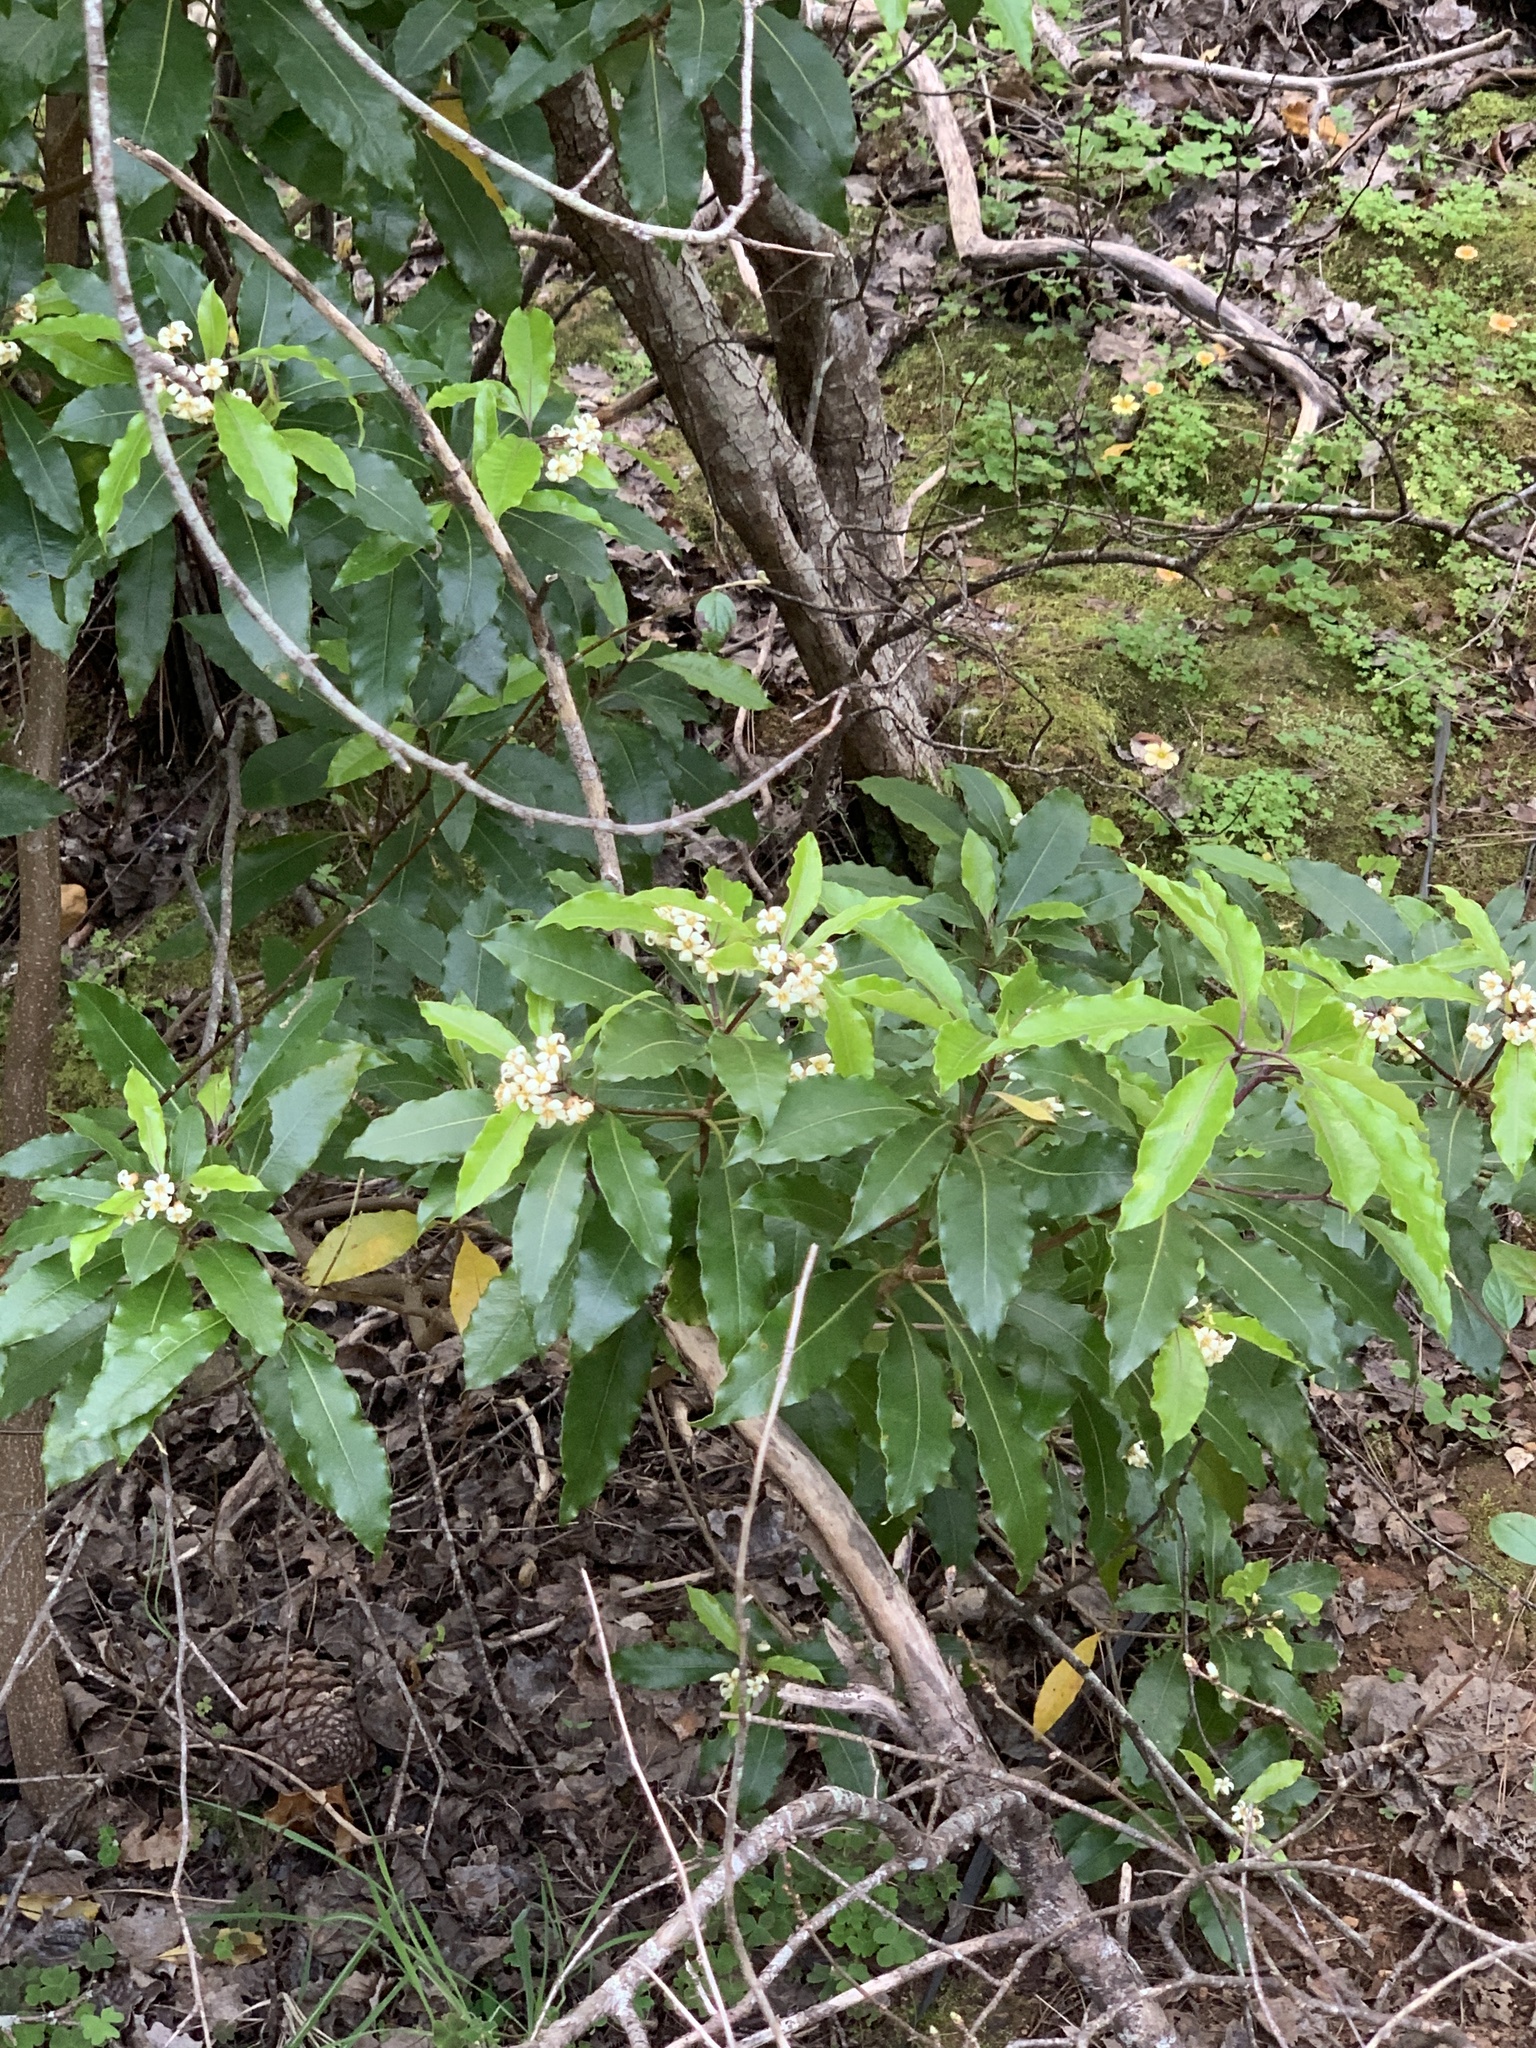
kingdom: Plantae
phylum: Tracheophyta
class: Magnoliopsida
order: Apiales
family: Pittosporaceae
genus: Pittosporum
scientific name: Pittosporum undulatum
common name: Australian cheesewood
